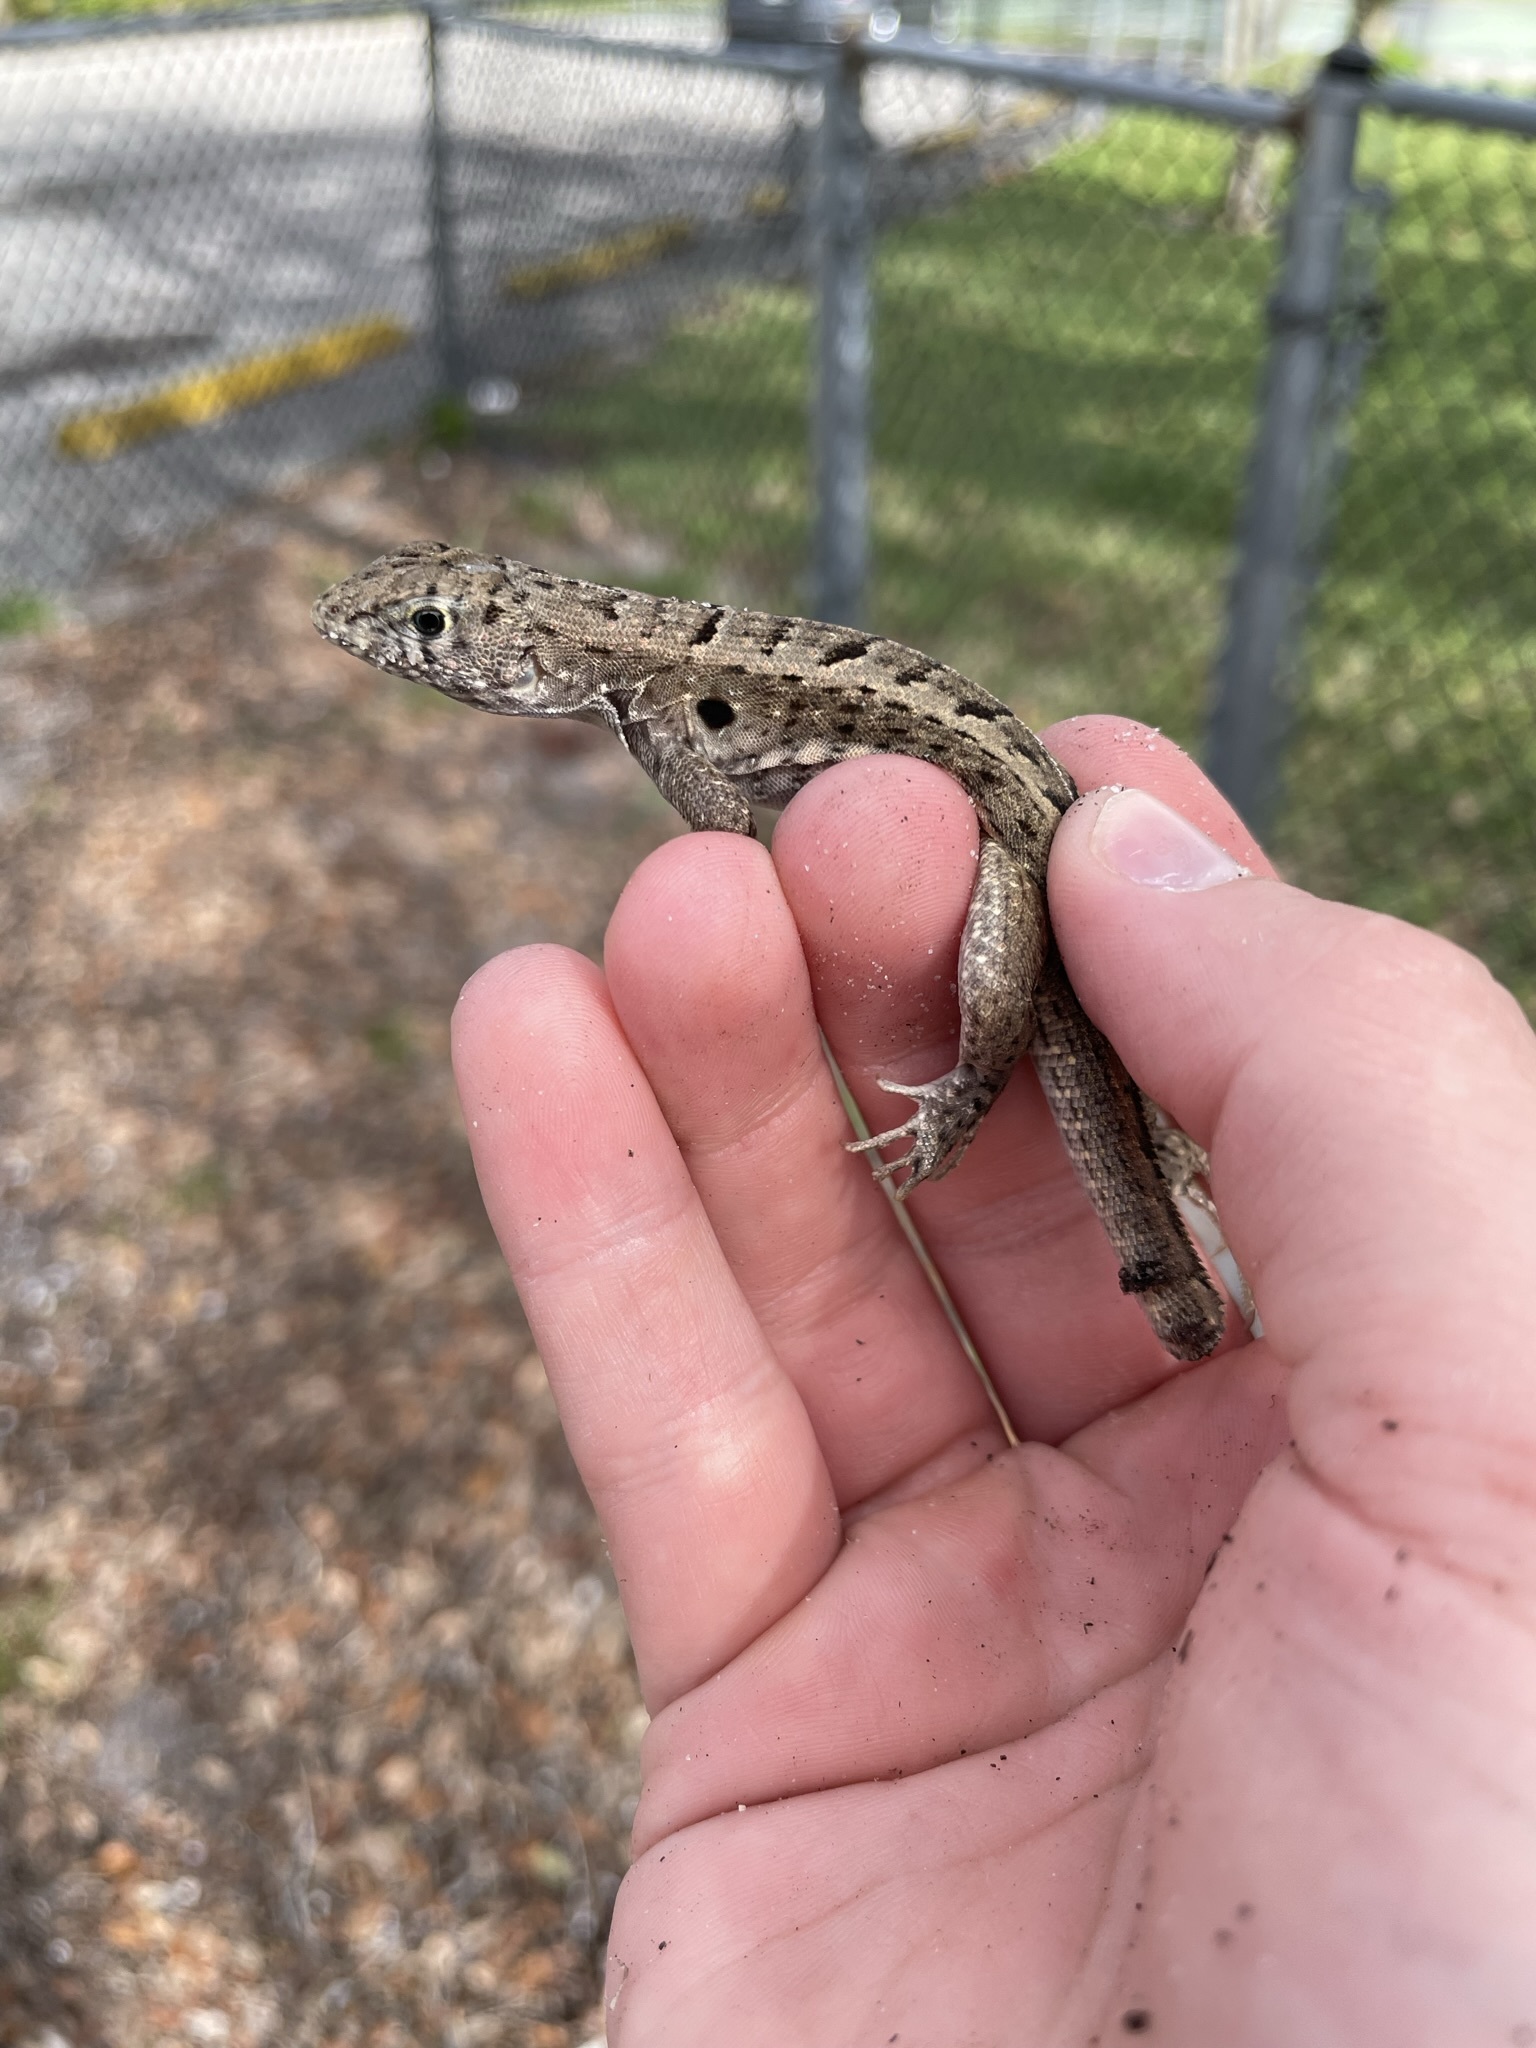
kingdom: Animalia
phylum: Chordata
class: Squamata
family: Leiocephalidae
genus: Leiocephalus
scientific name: Leiocephalus schreibersii
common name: Red-sided curly-tailed lizard
